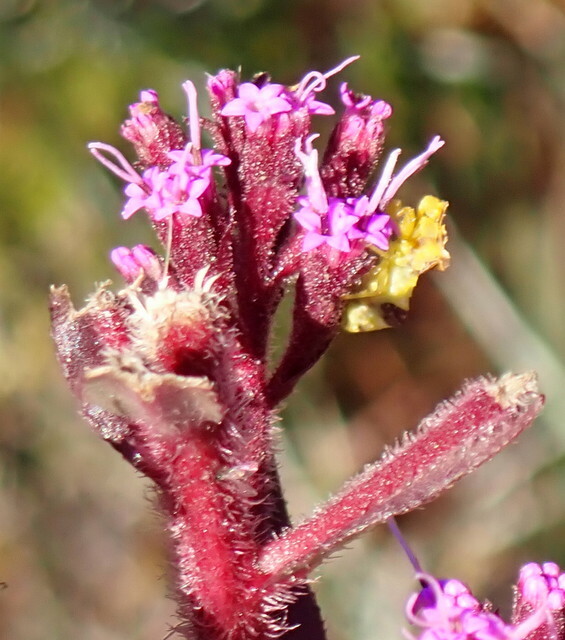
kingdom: Plantae
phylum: Tracheophyta
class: Magnoliopsida
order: Asterales
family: Asteraceae
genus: Carphephorus
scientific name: Carphephorus paniculatus
